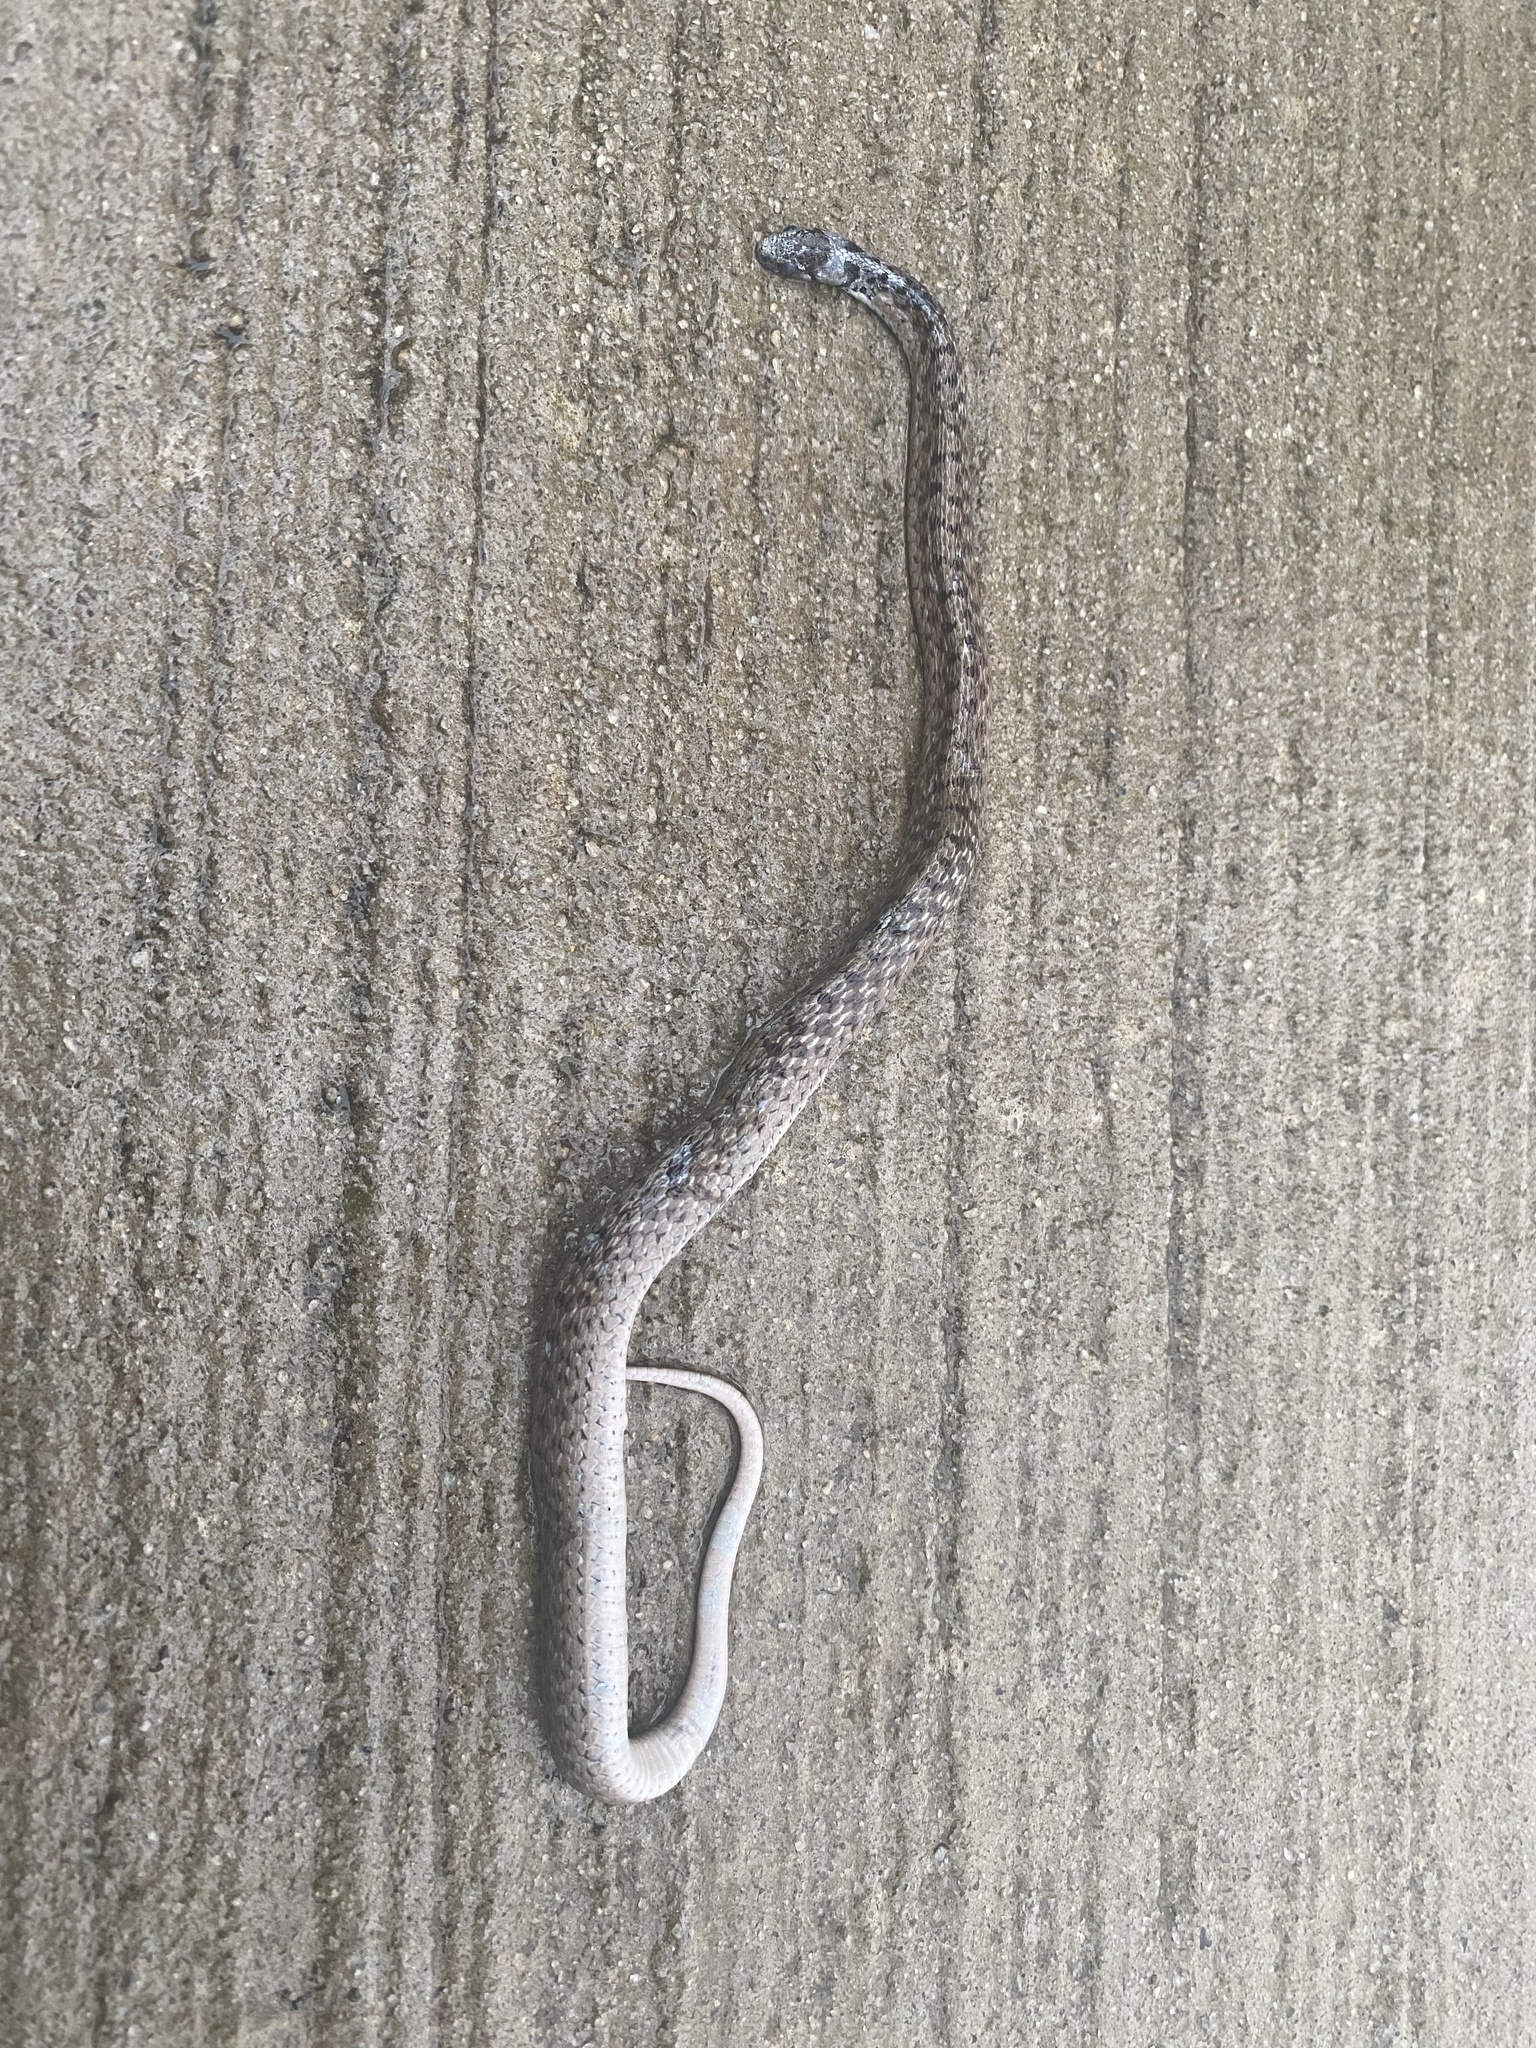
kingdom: Animalia
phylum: Chordata
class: Squamata
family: Colubridae
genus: Storeria
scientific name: Storeria dekayi
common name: (dekay’s) brown snake
